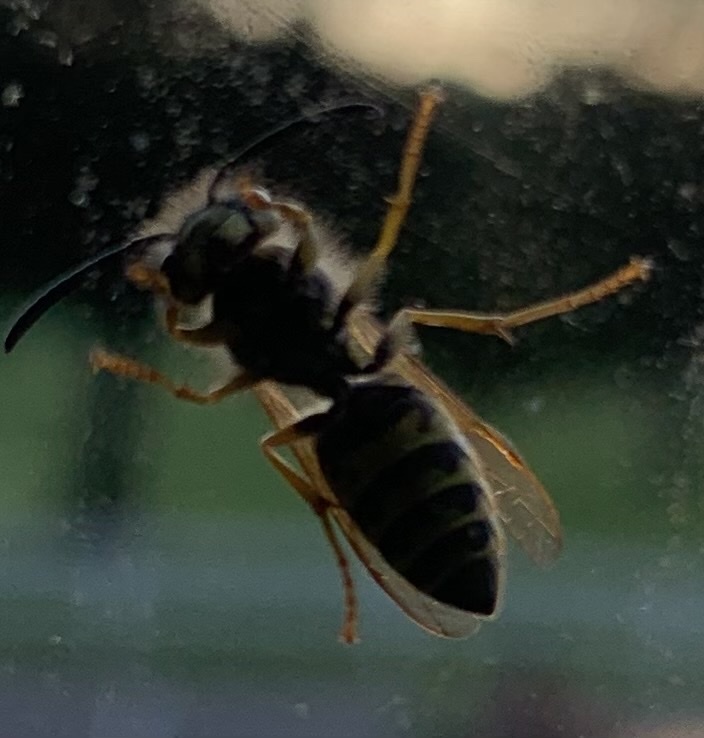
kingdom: Animalia
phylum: Arthropoda
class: Insecta
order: Hymenoptera
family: Vespidae
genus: Vespula
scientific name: Vespula
